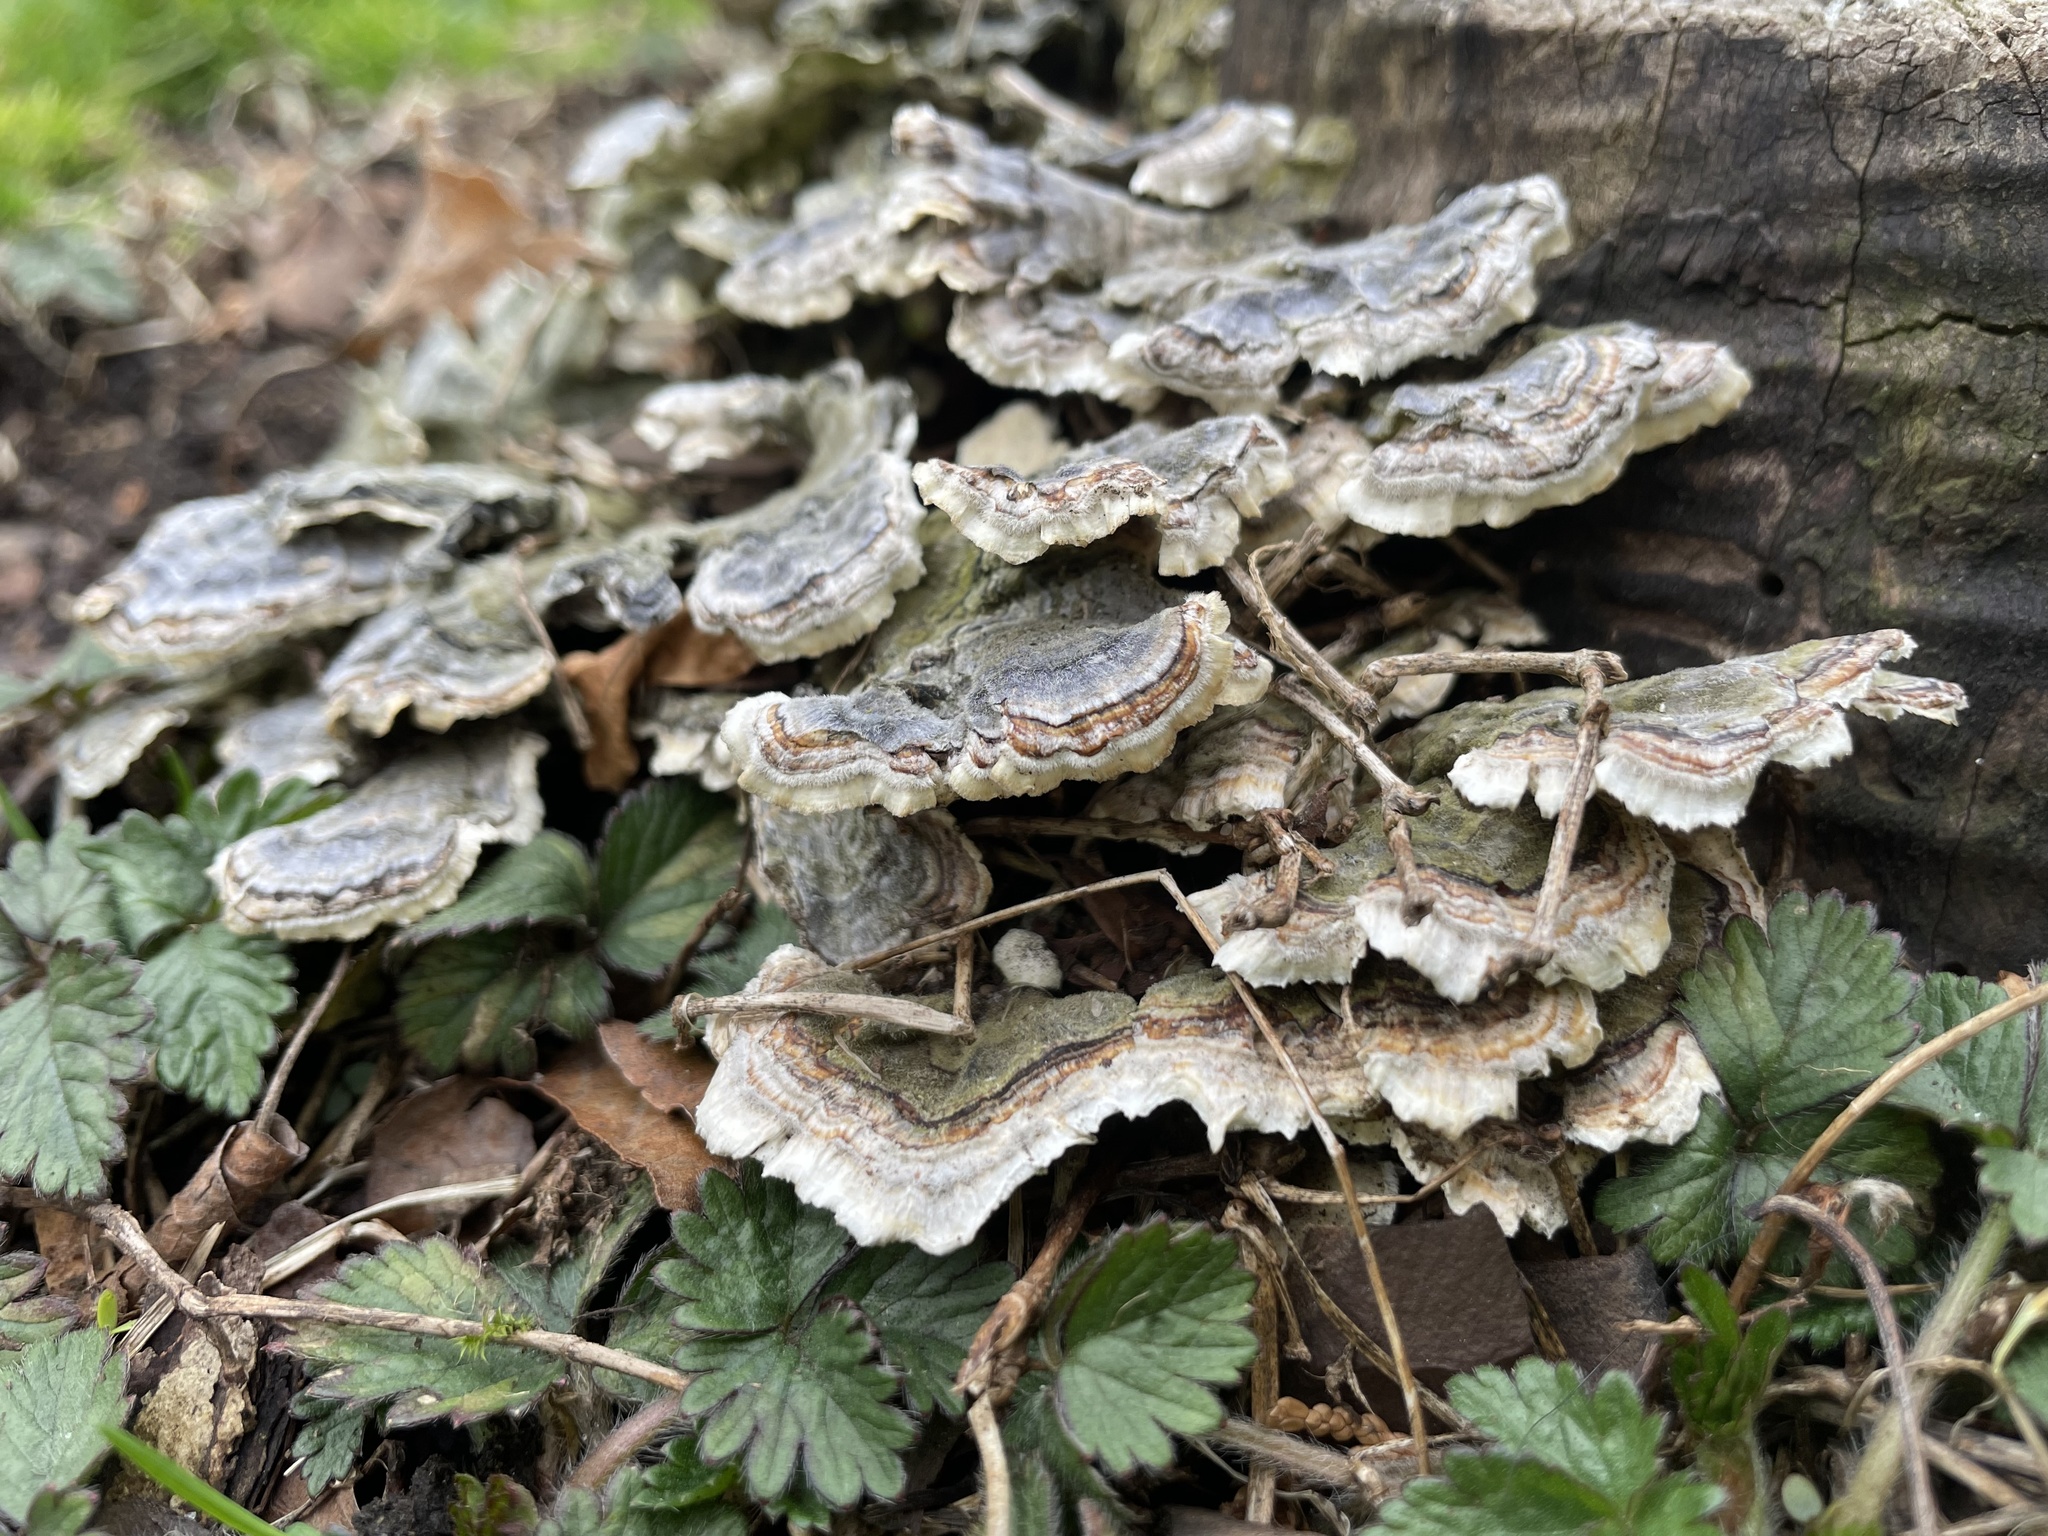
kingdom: Fungi
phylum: Basidiomycota
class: Agaricomycetes
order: Polyporales
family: Polyporaceae
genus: Trametes
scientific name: Trametes versicolor
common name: Turkeytail
